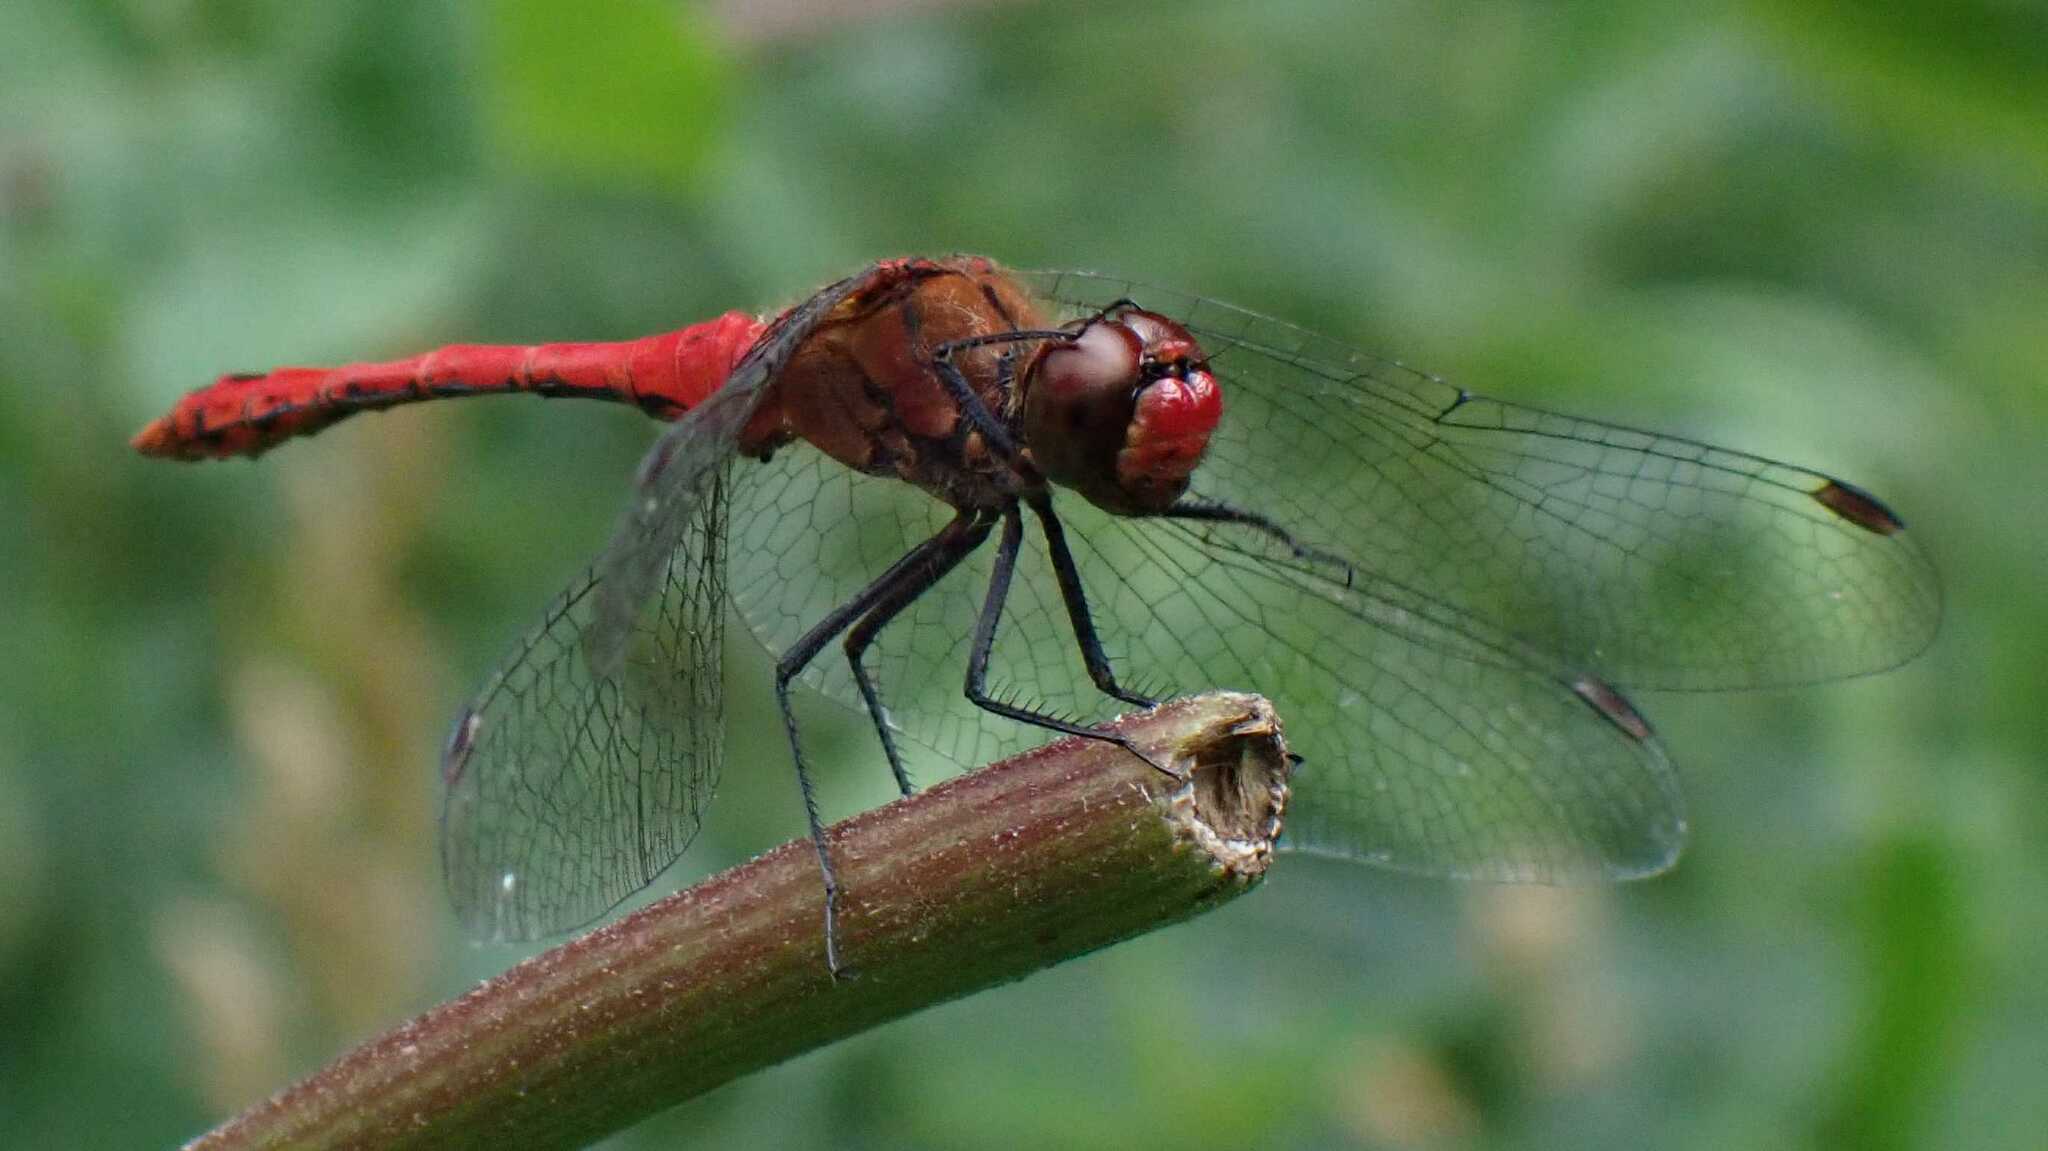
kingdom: Animalia
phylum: Arthropoda
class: Insecta
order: Odonata
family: Libellulidae
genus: Sympetrum
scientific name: Sympetrum sanguineum
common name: Ruddy darter
